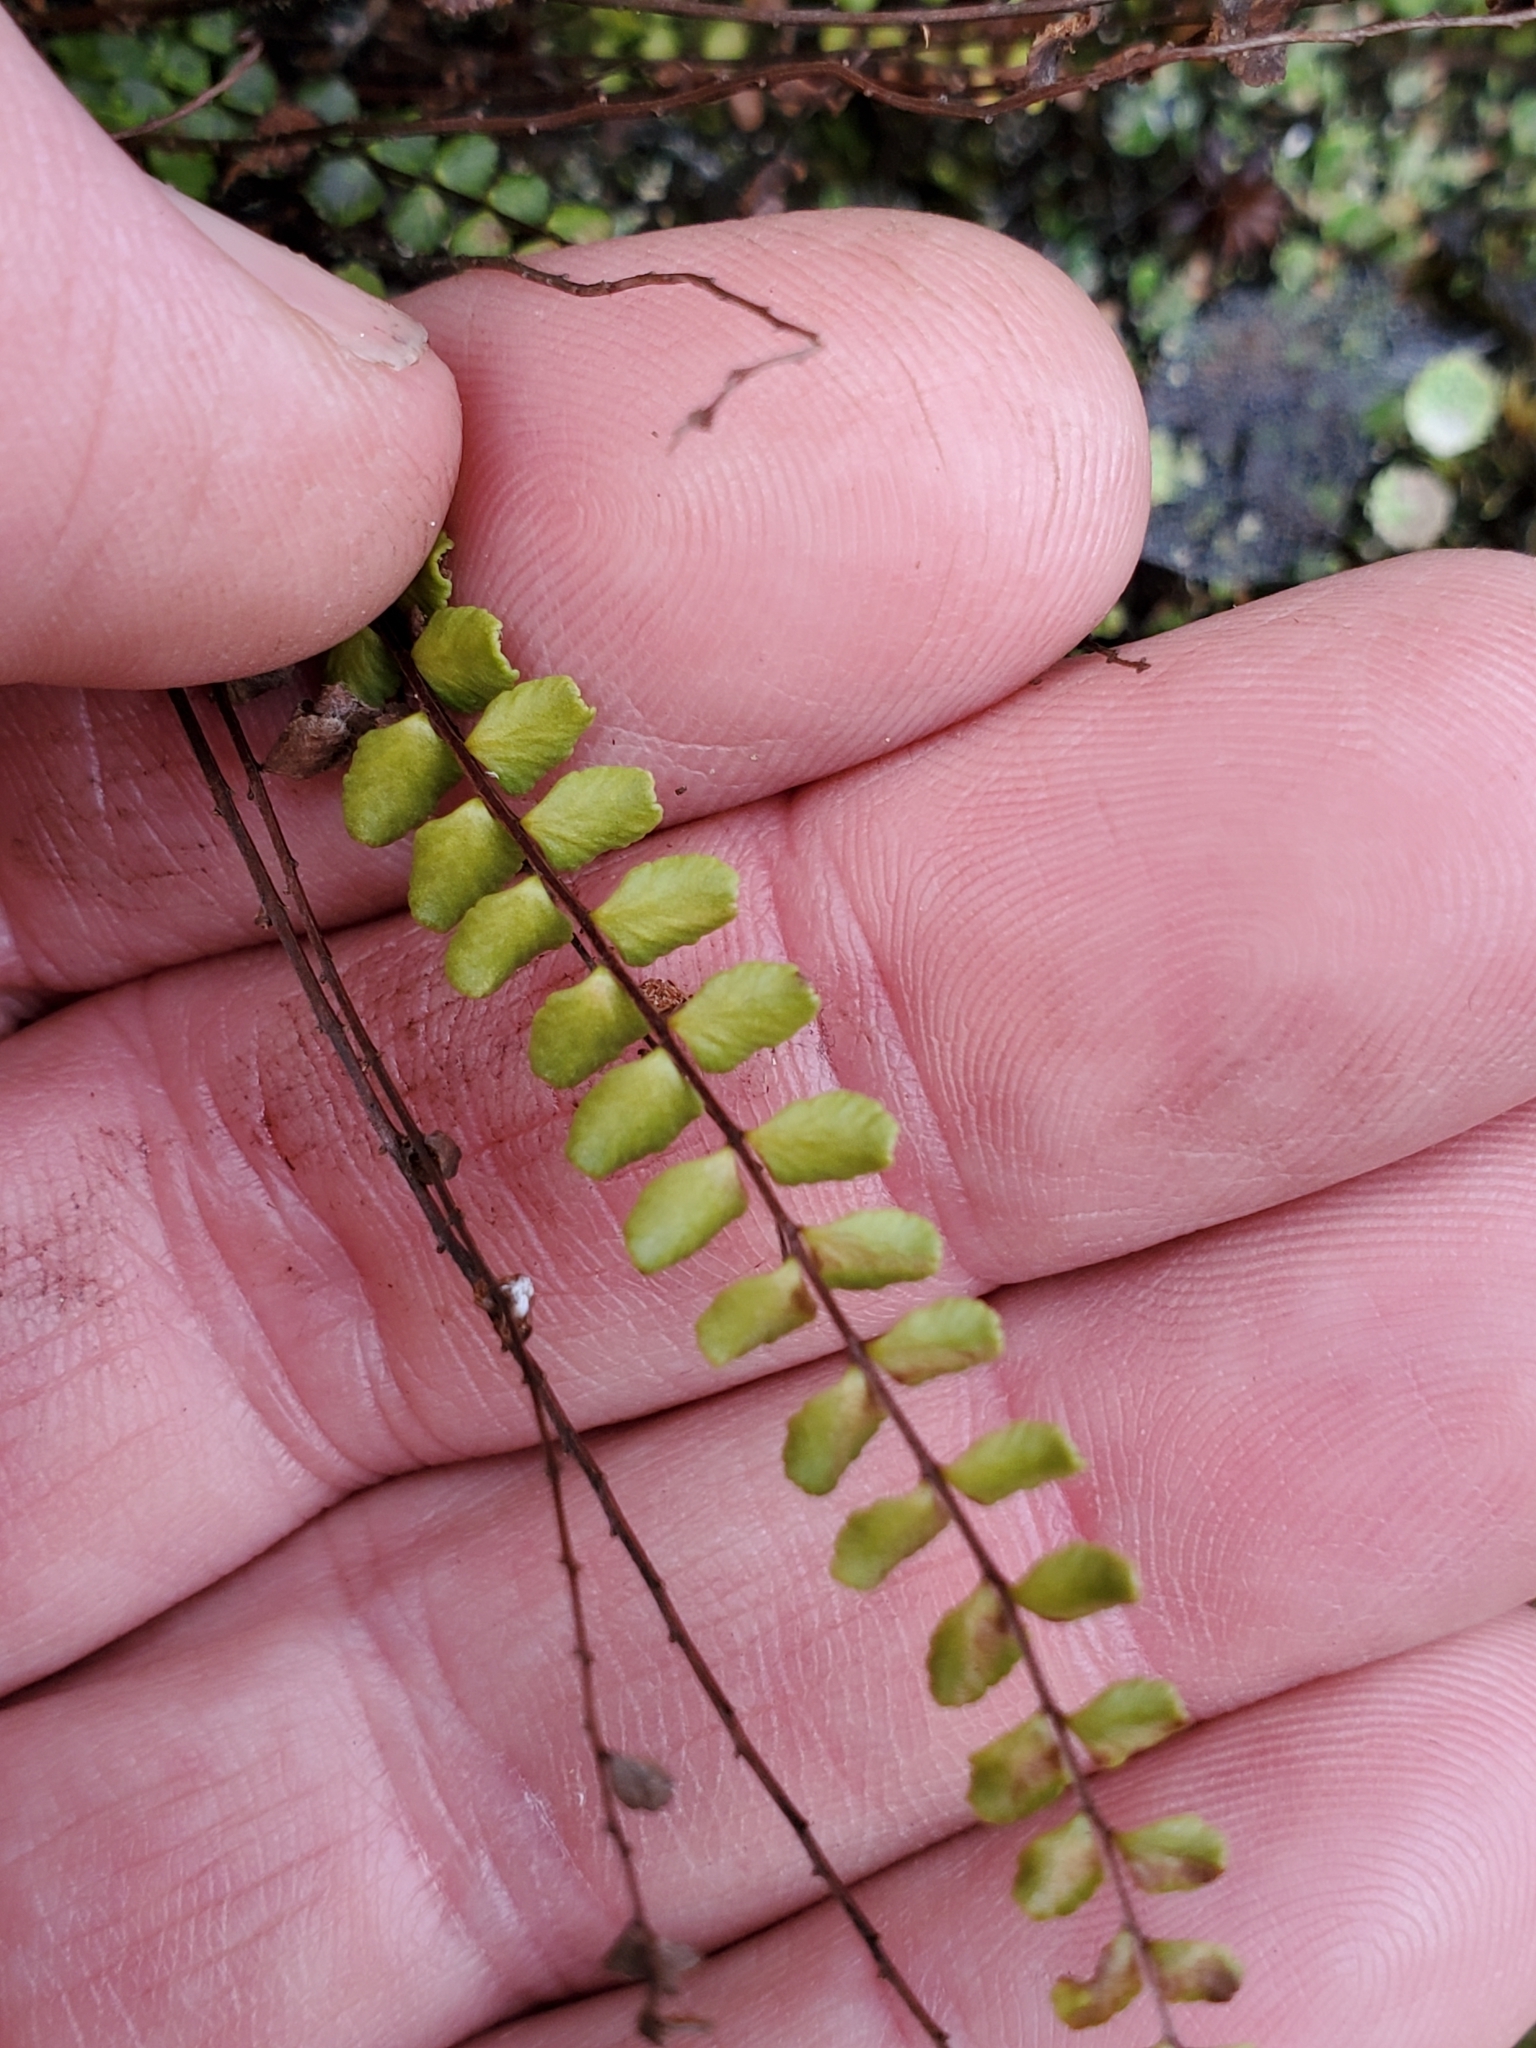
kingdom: Plantae
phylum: Tracheophyta
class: Polypodiopsida
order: Polypodiales
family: Aspleniaceae
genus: Asplenium
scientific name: Asplenium trichomanes
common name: Maidenhair spleenwort
